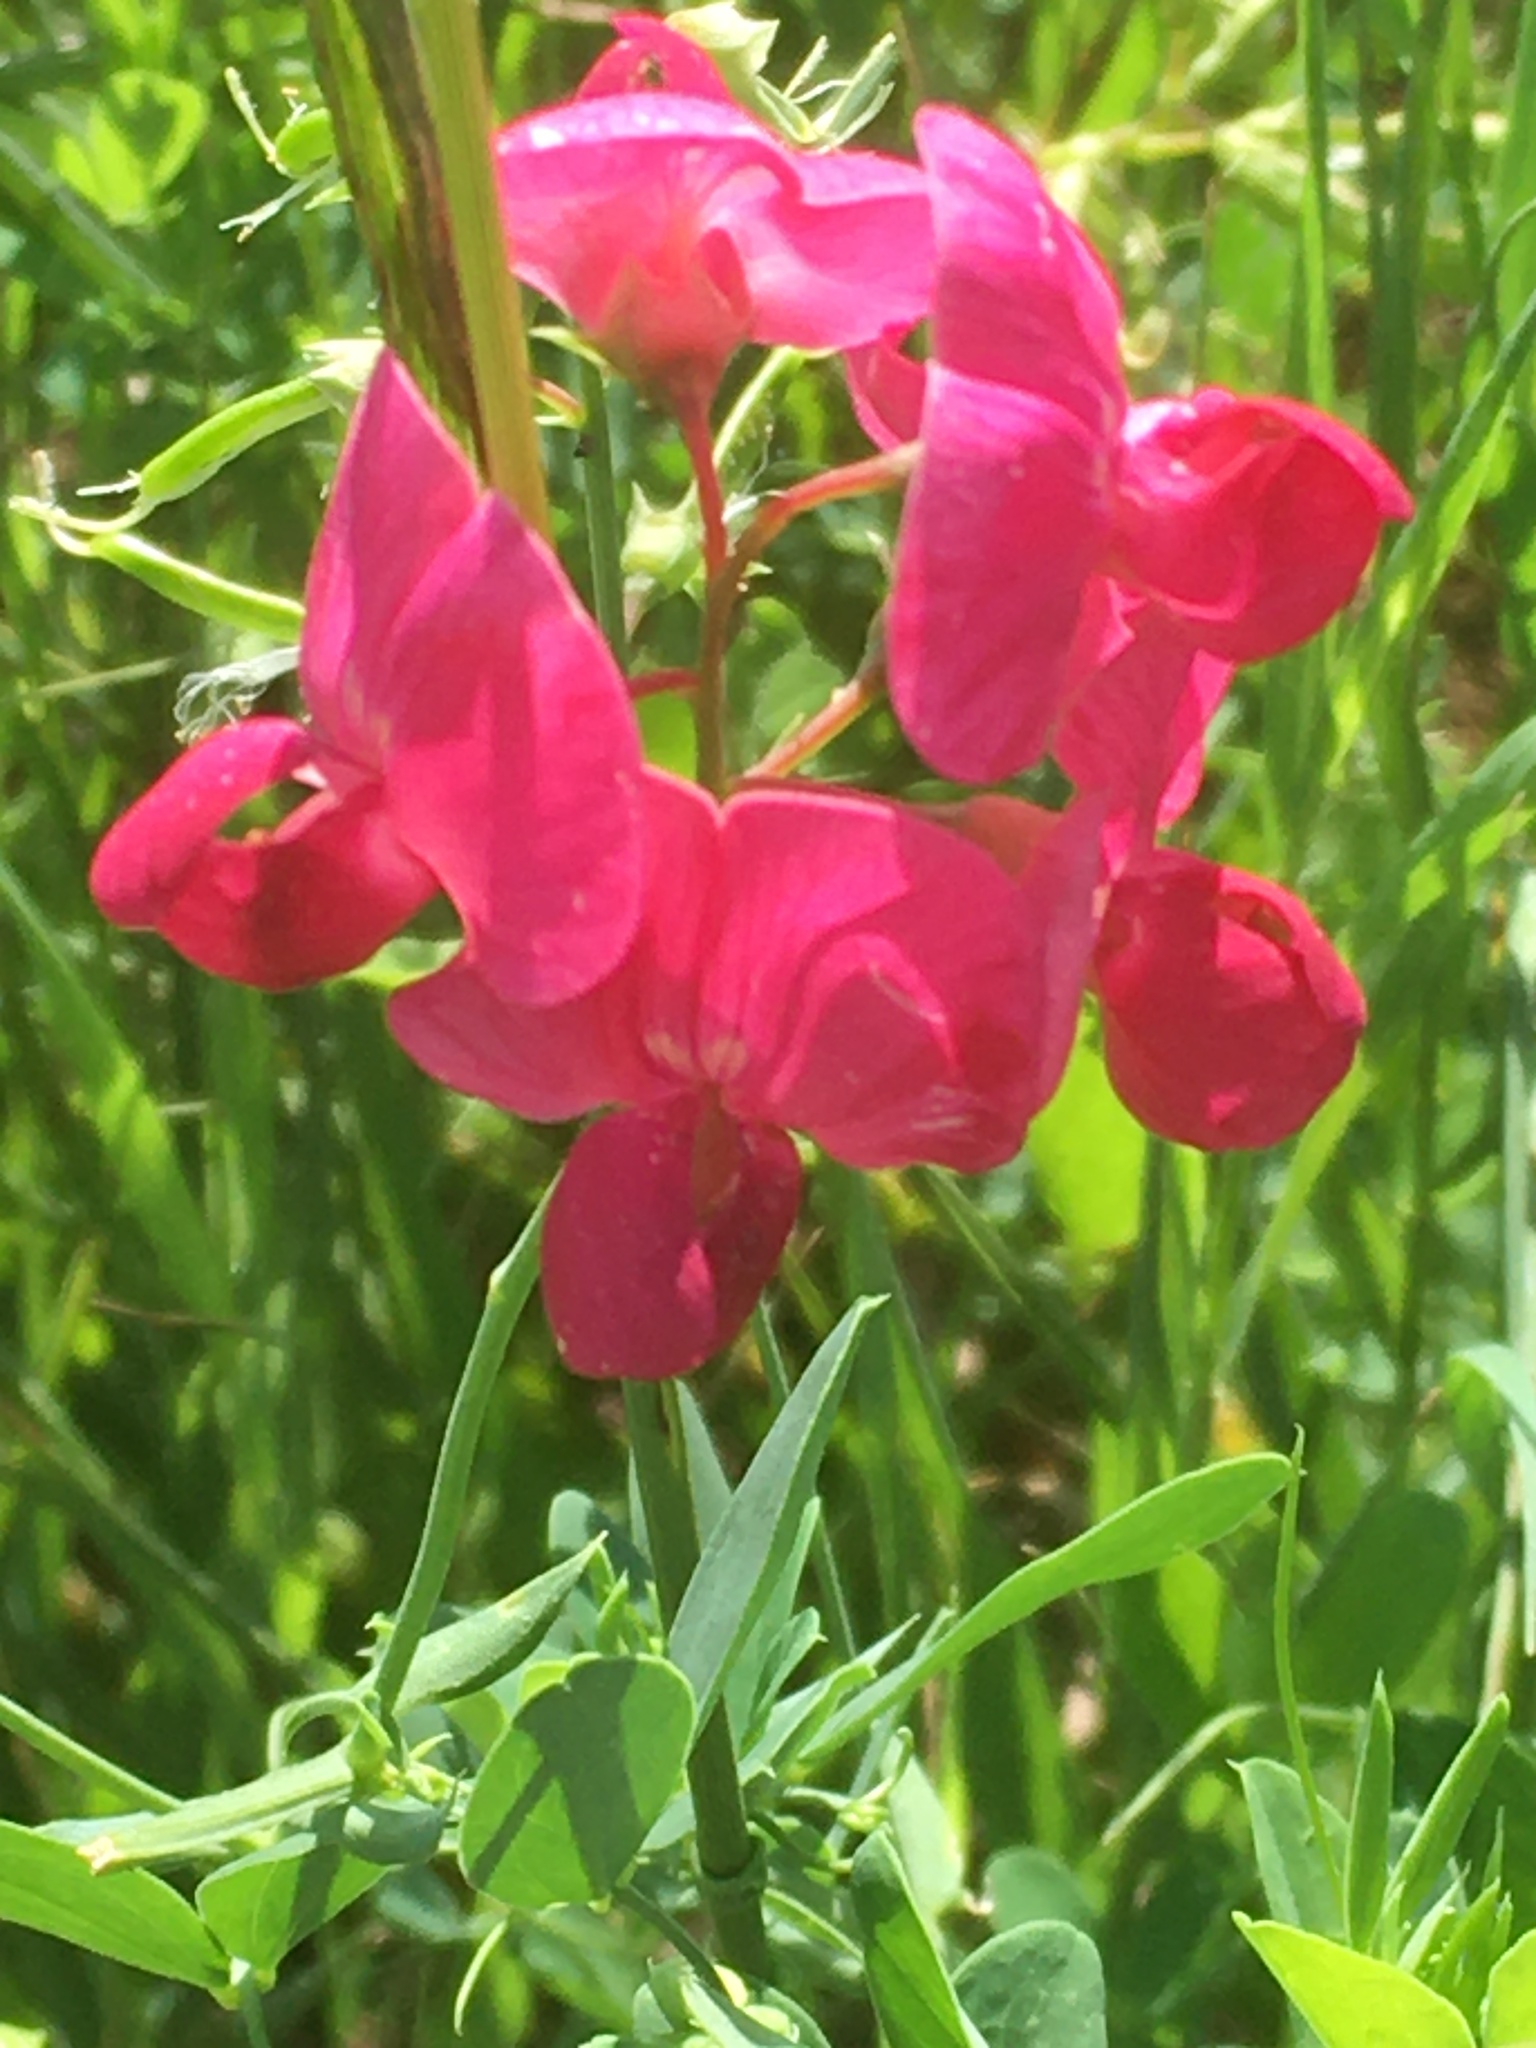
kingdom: Plantae
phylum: Tracheophyta
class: Magnoliopsida
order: Fabales
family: Fabaceae
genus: Lathyrus
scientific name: Lathyrus tuberosus
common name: Tuberous pea
